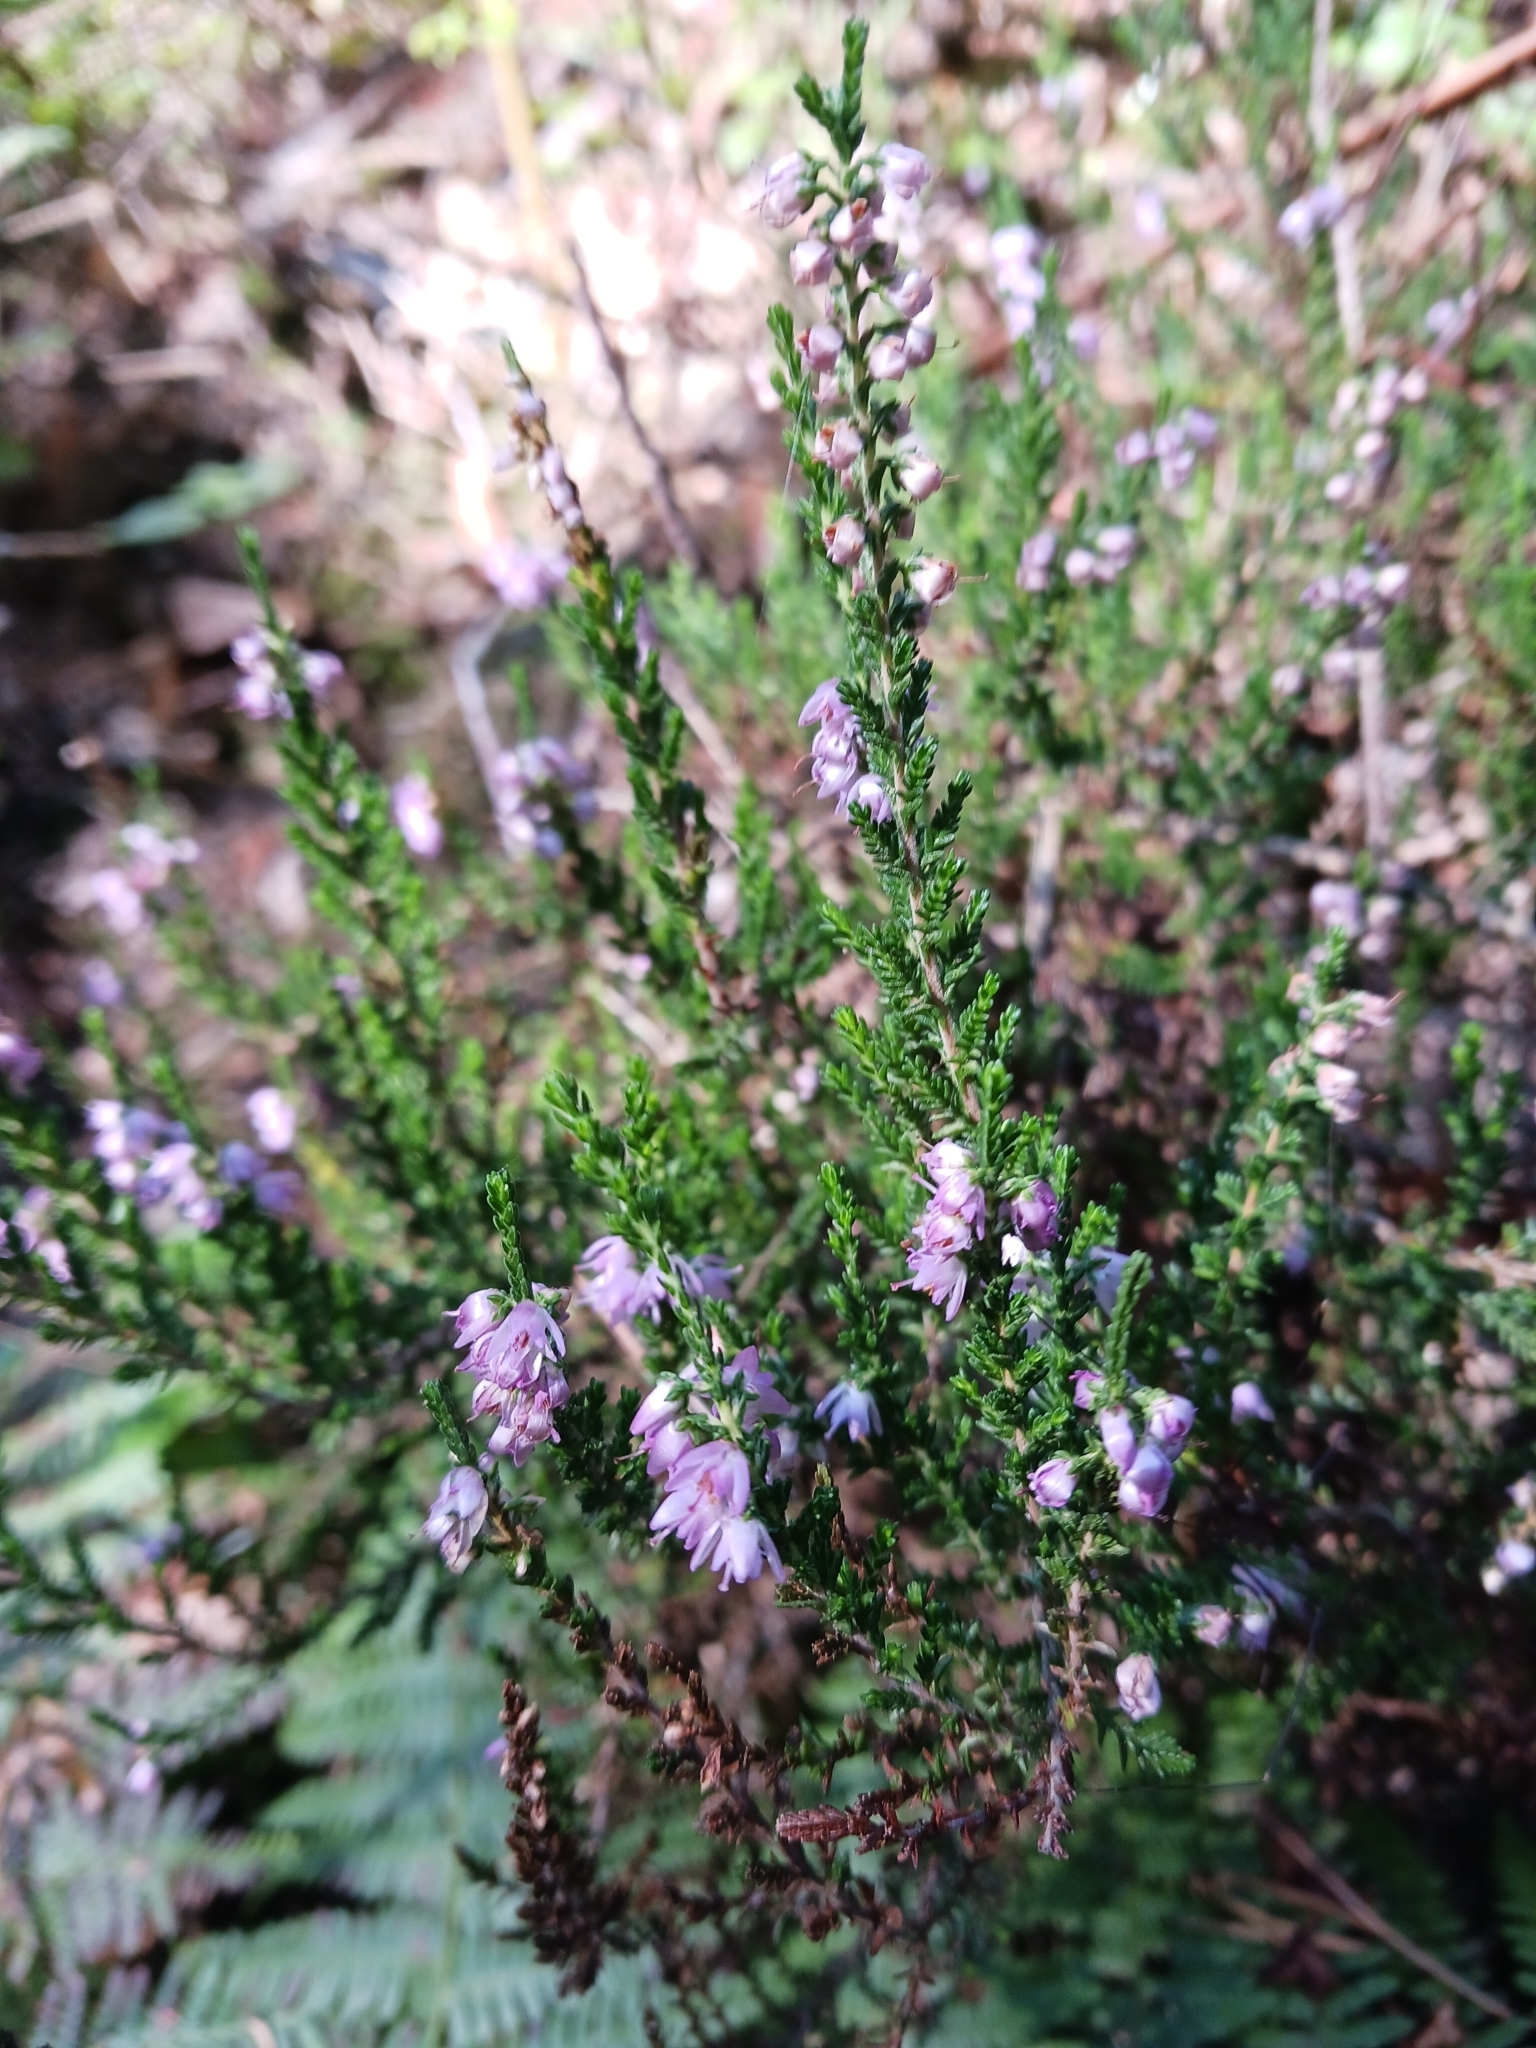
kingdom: Plantae
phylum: Tracheophyta
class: Magnoliopsida
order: Ericales
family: Ericaceae
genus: Calluna
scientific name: Calluna vulgaris
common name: Heather
